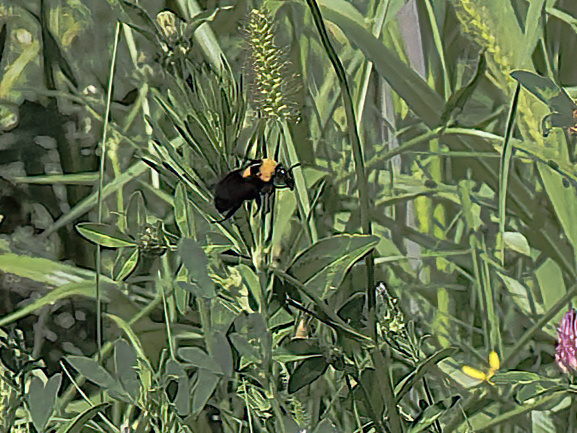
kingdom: Animalia
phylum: Arthropoda
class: Insecta
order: Hymenoptera
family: Apidae
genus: Bombus
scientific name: Bombus argillaceus
